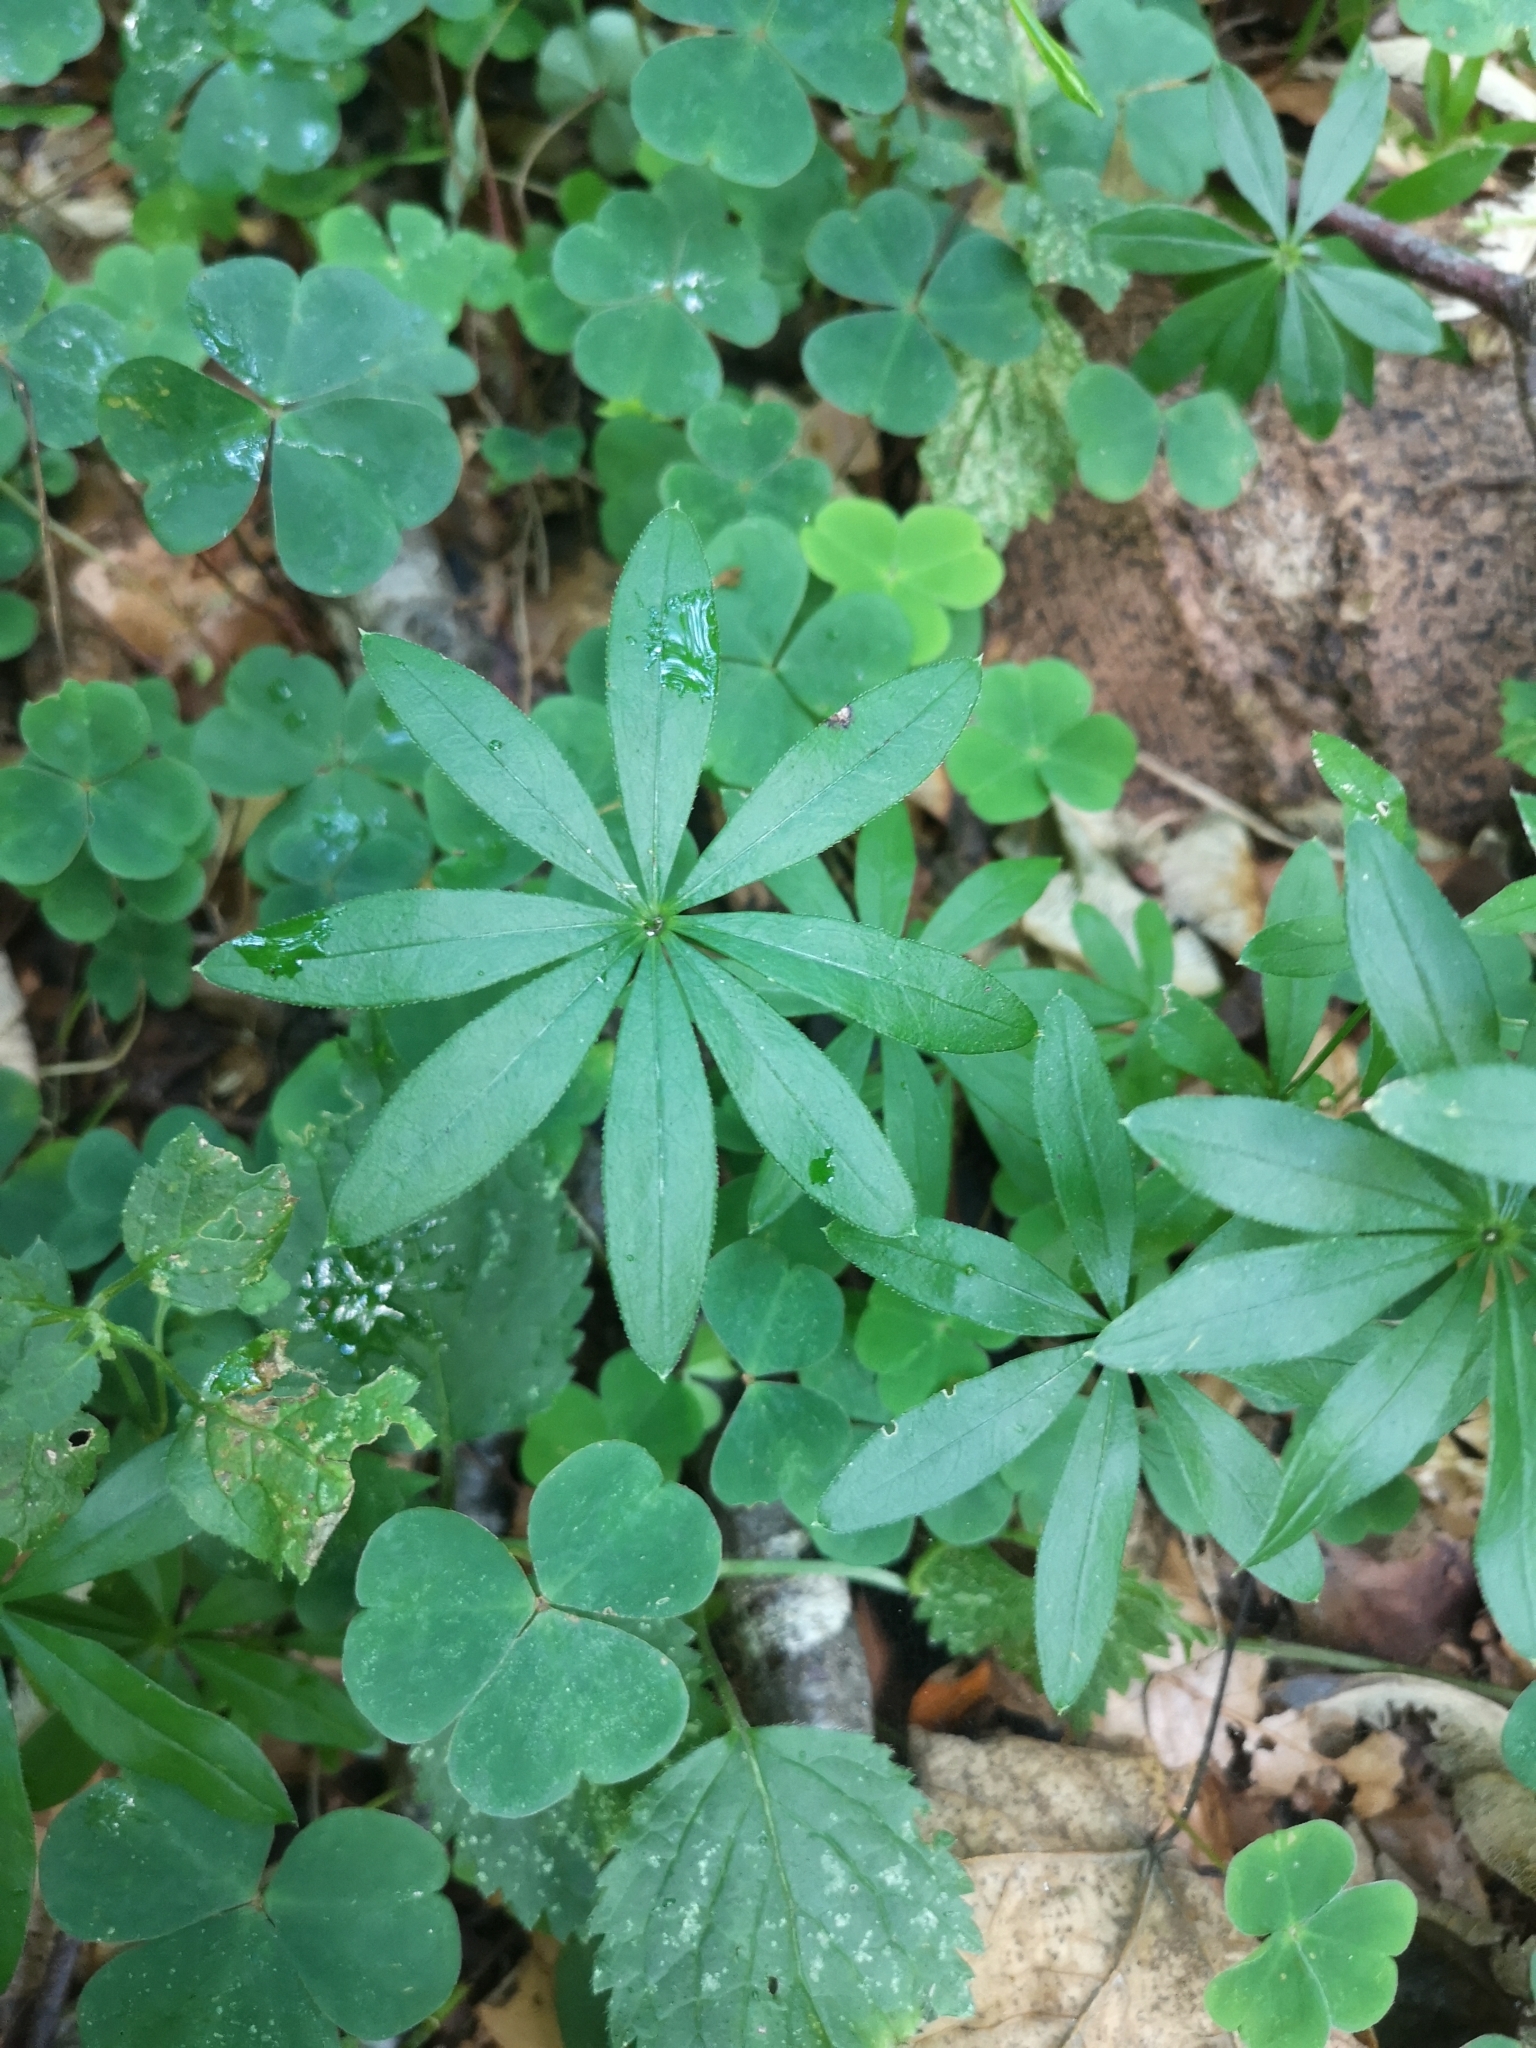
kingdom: Plantae
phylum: Tracheophyta
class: Magnoliopsida
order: Gentianales
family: Rubiaceae
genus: Galium
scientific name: Galium odoratum
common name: Sweet woodruff
